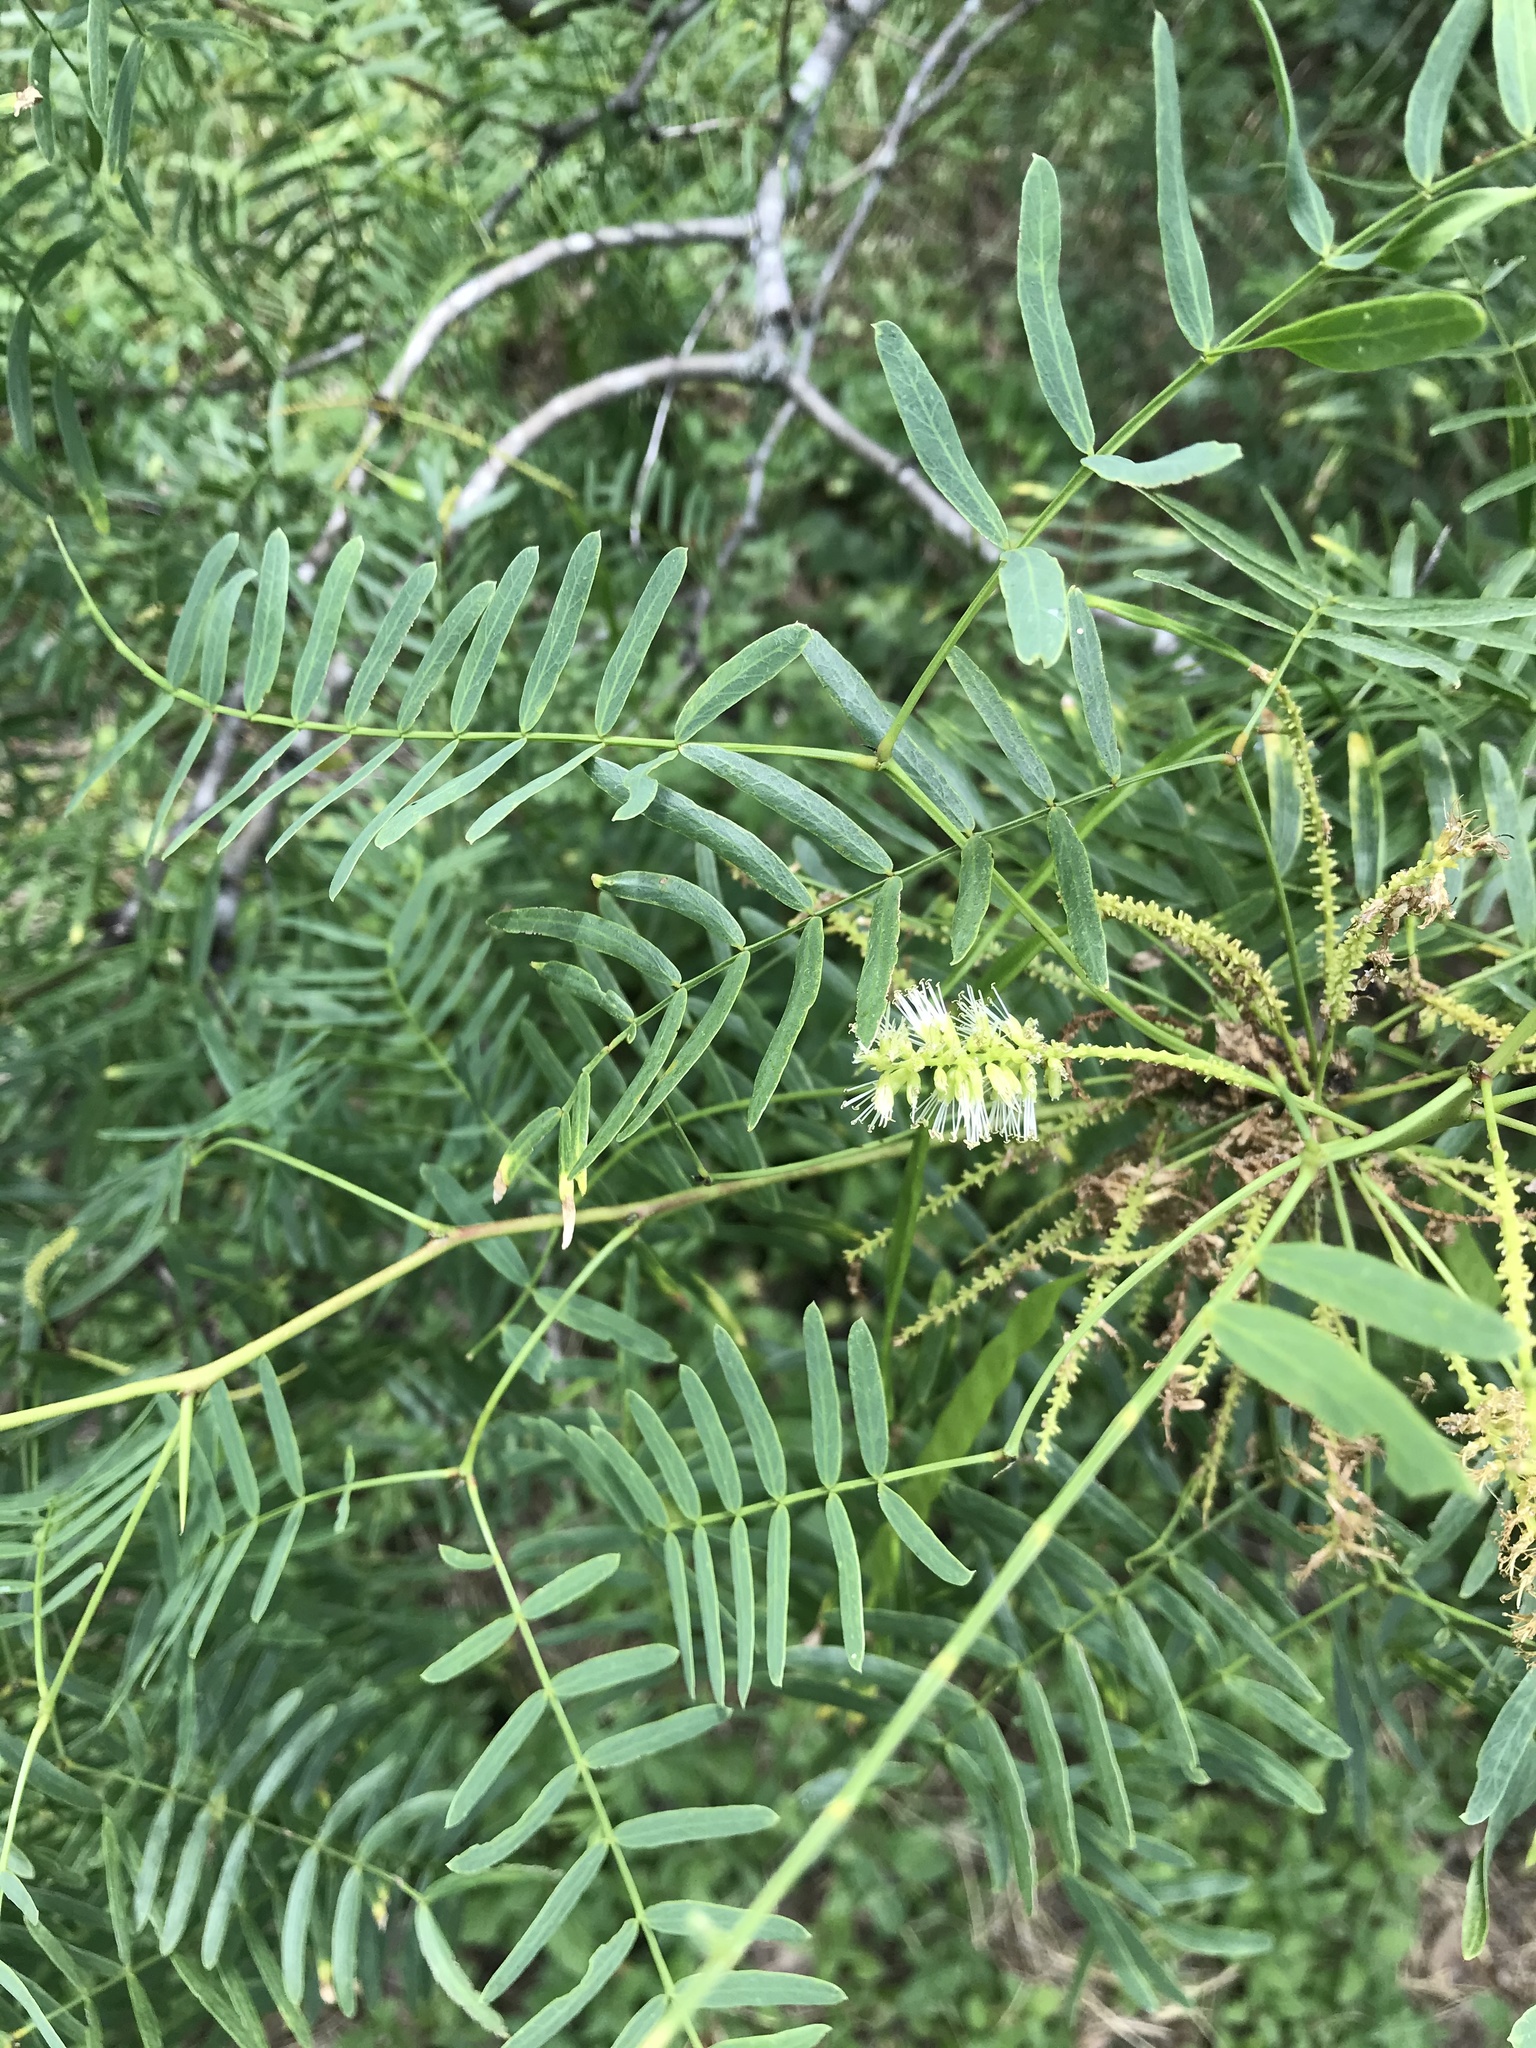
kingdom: Plantae
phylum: Tracheophyta
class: Magnoliopsida
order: Fabales
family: Fabaceae
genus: Prosopis
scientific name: Prosopis glandulosa
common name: Honey mesquite
